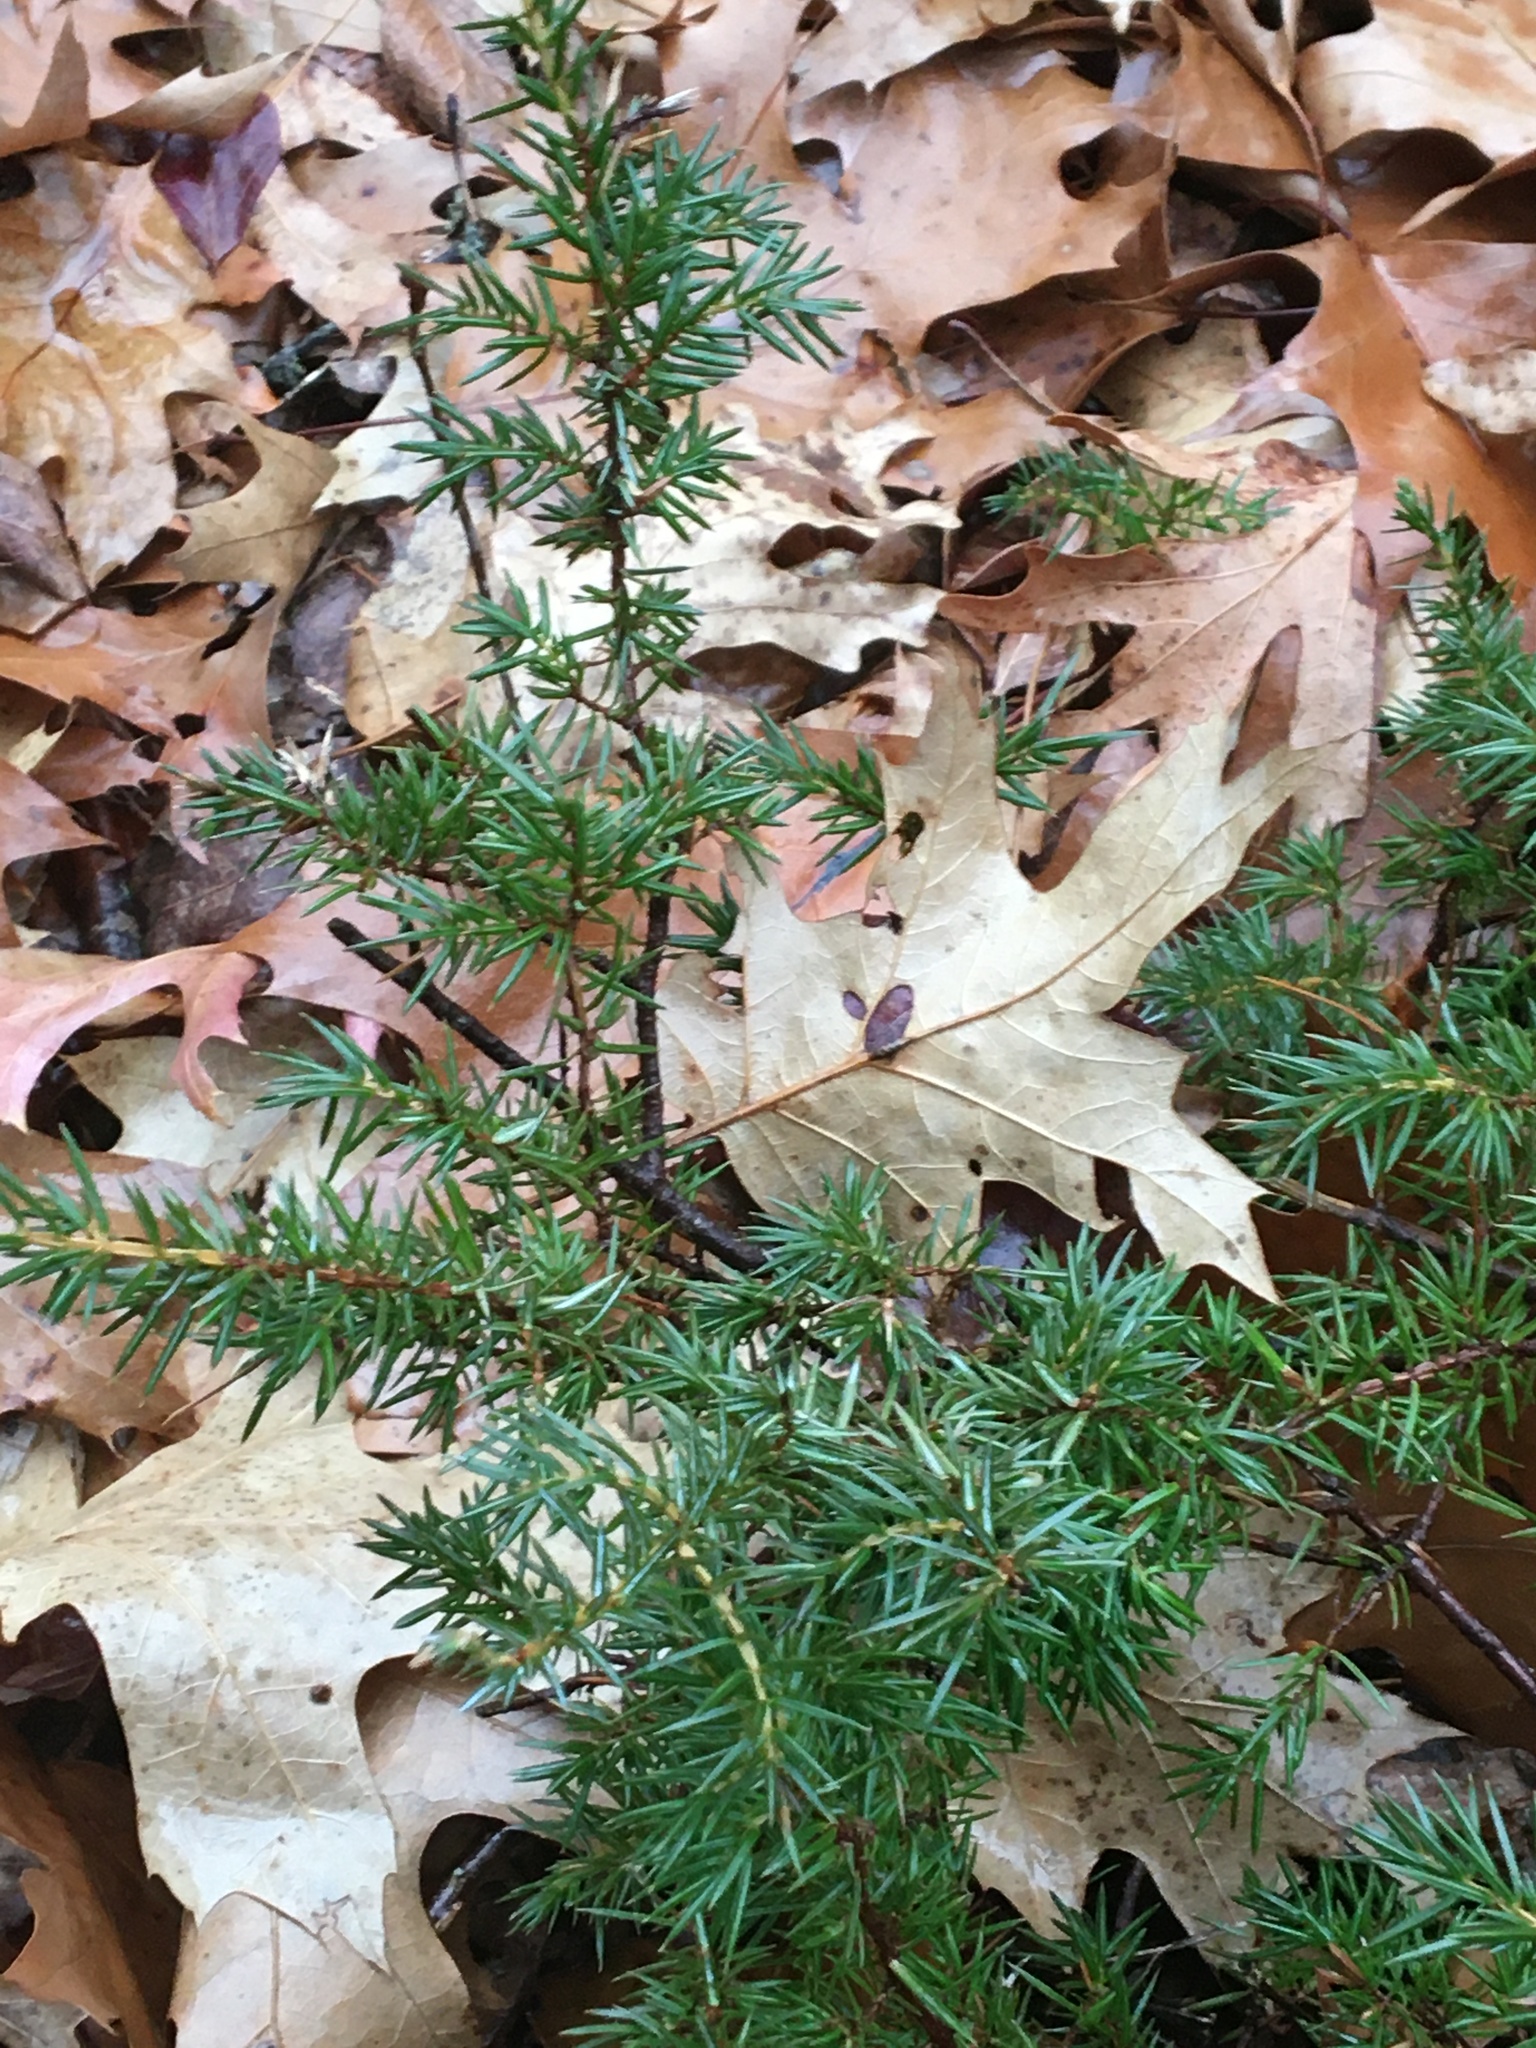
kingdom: Plantae
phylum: Tracheophyta
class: Pinopsida
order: Pinales
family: Cupressaceae
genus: Juniperus
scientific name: Juniperus communis
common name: Common juniper
